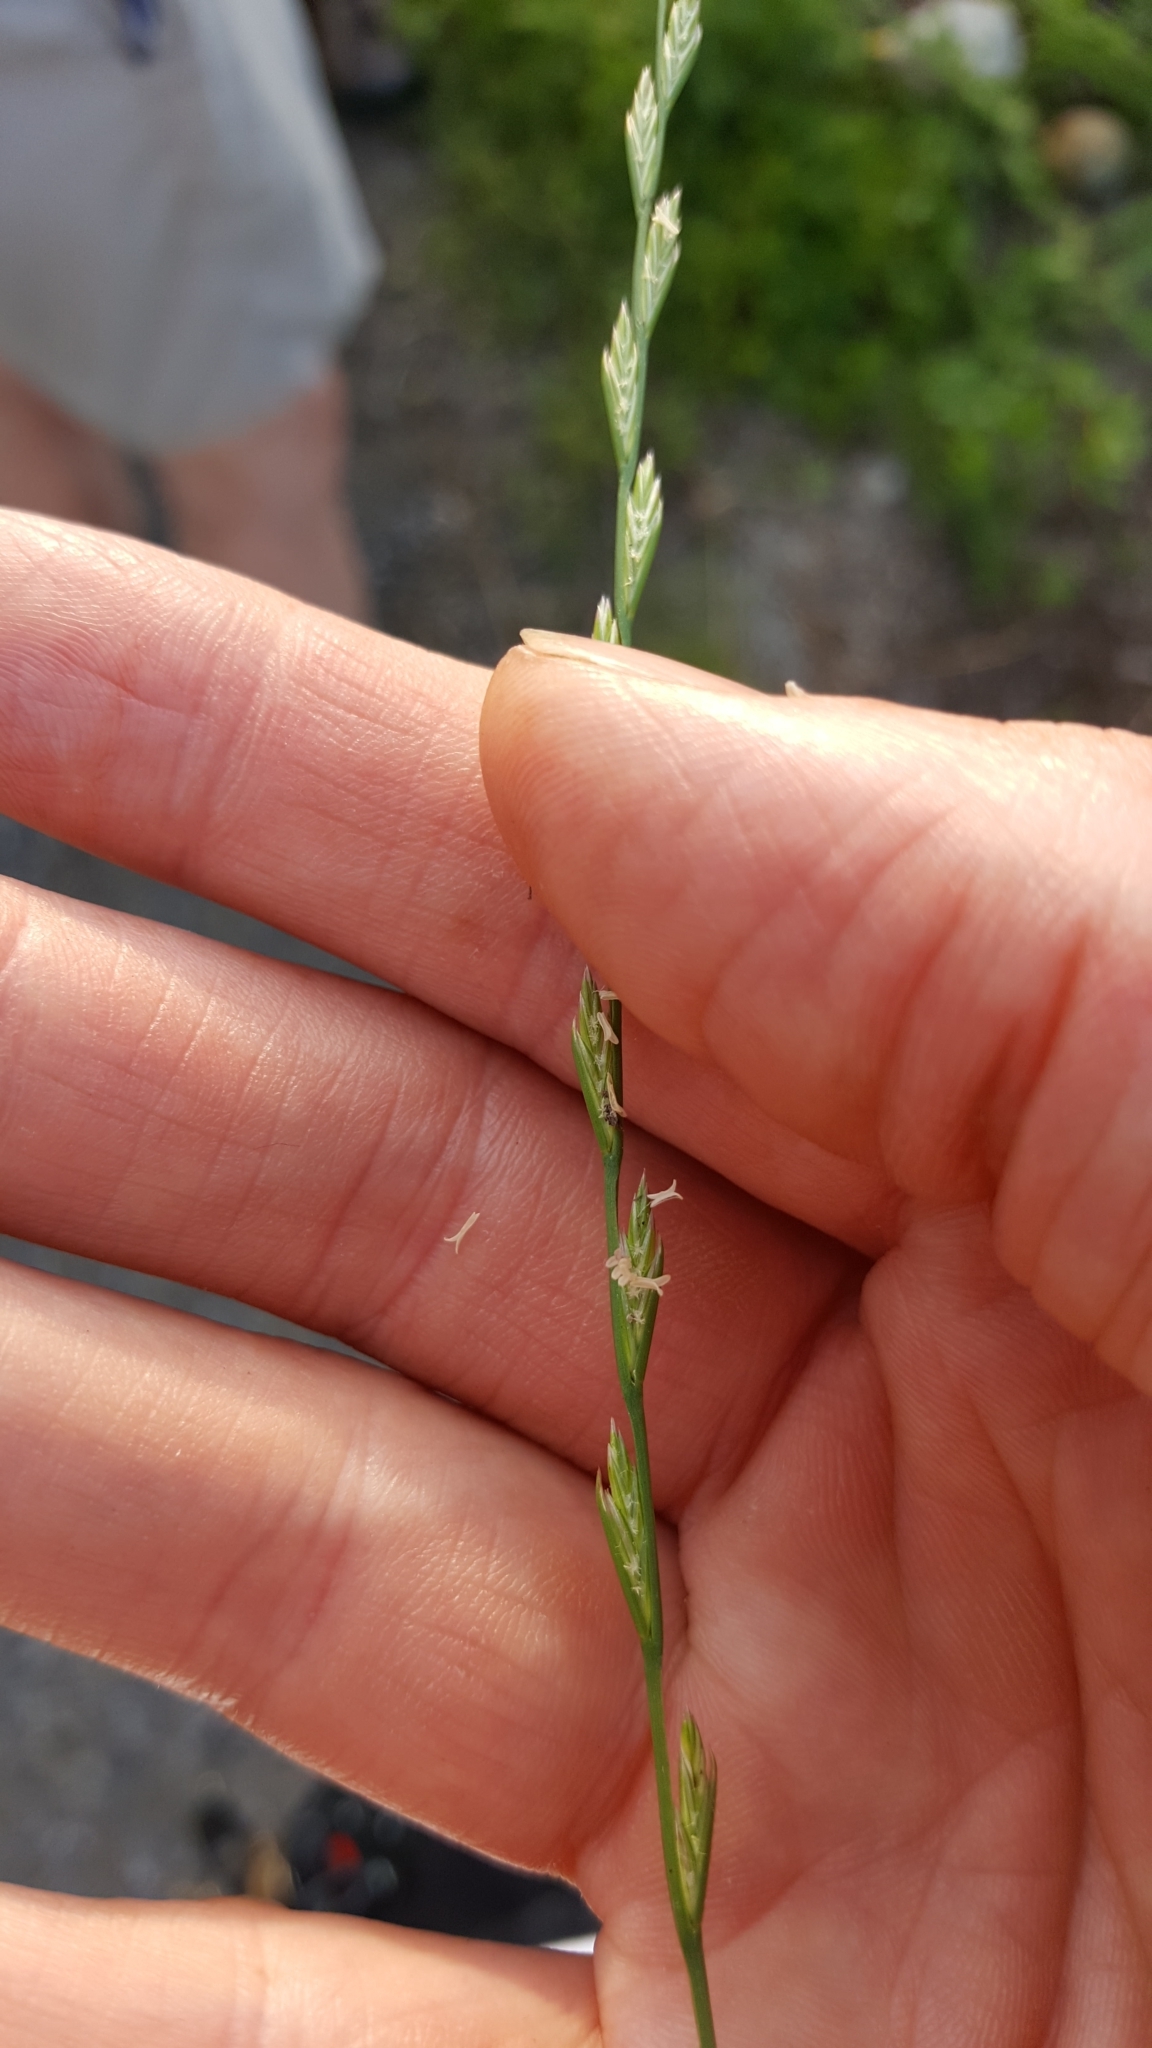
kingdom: Plantae
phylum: Tracheophyta
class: Liliopsida
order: Poales
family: Poaceae
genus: Lolium
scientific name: Lolium perenne
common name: Perennial ryegrass
